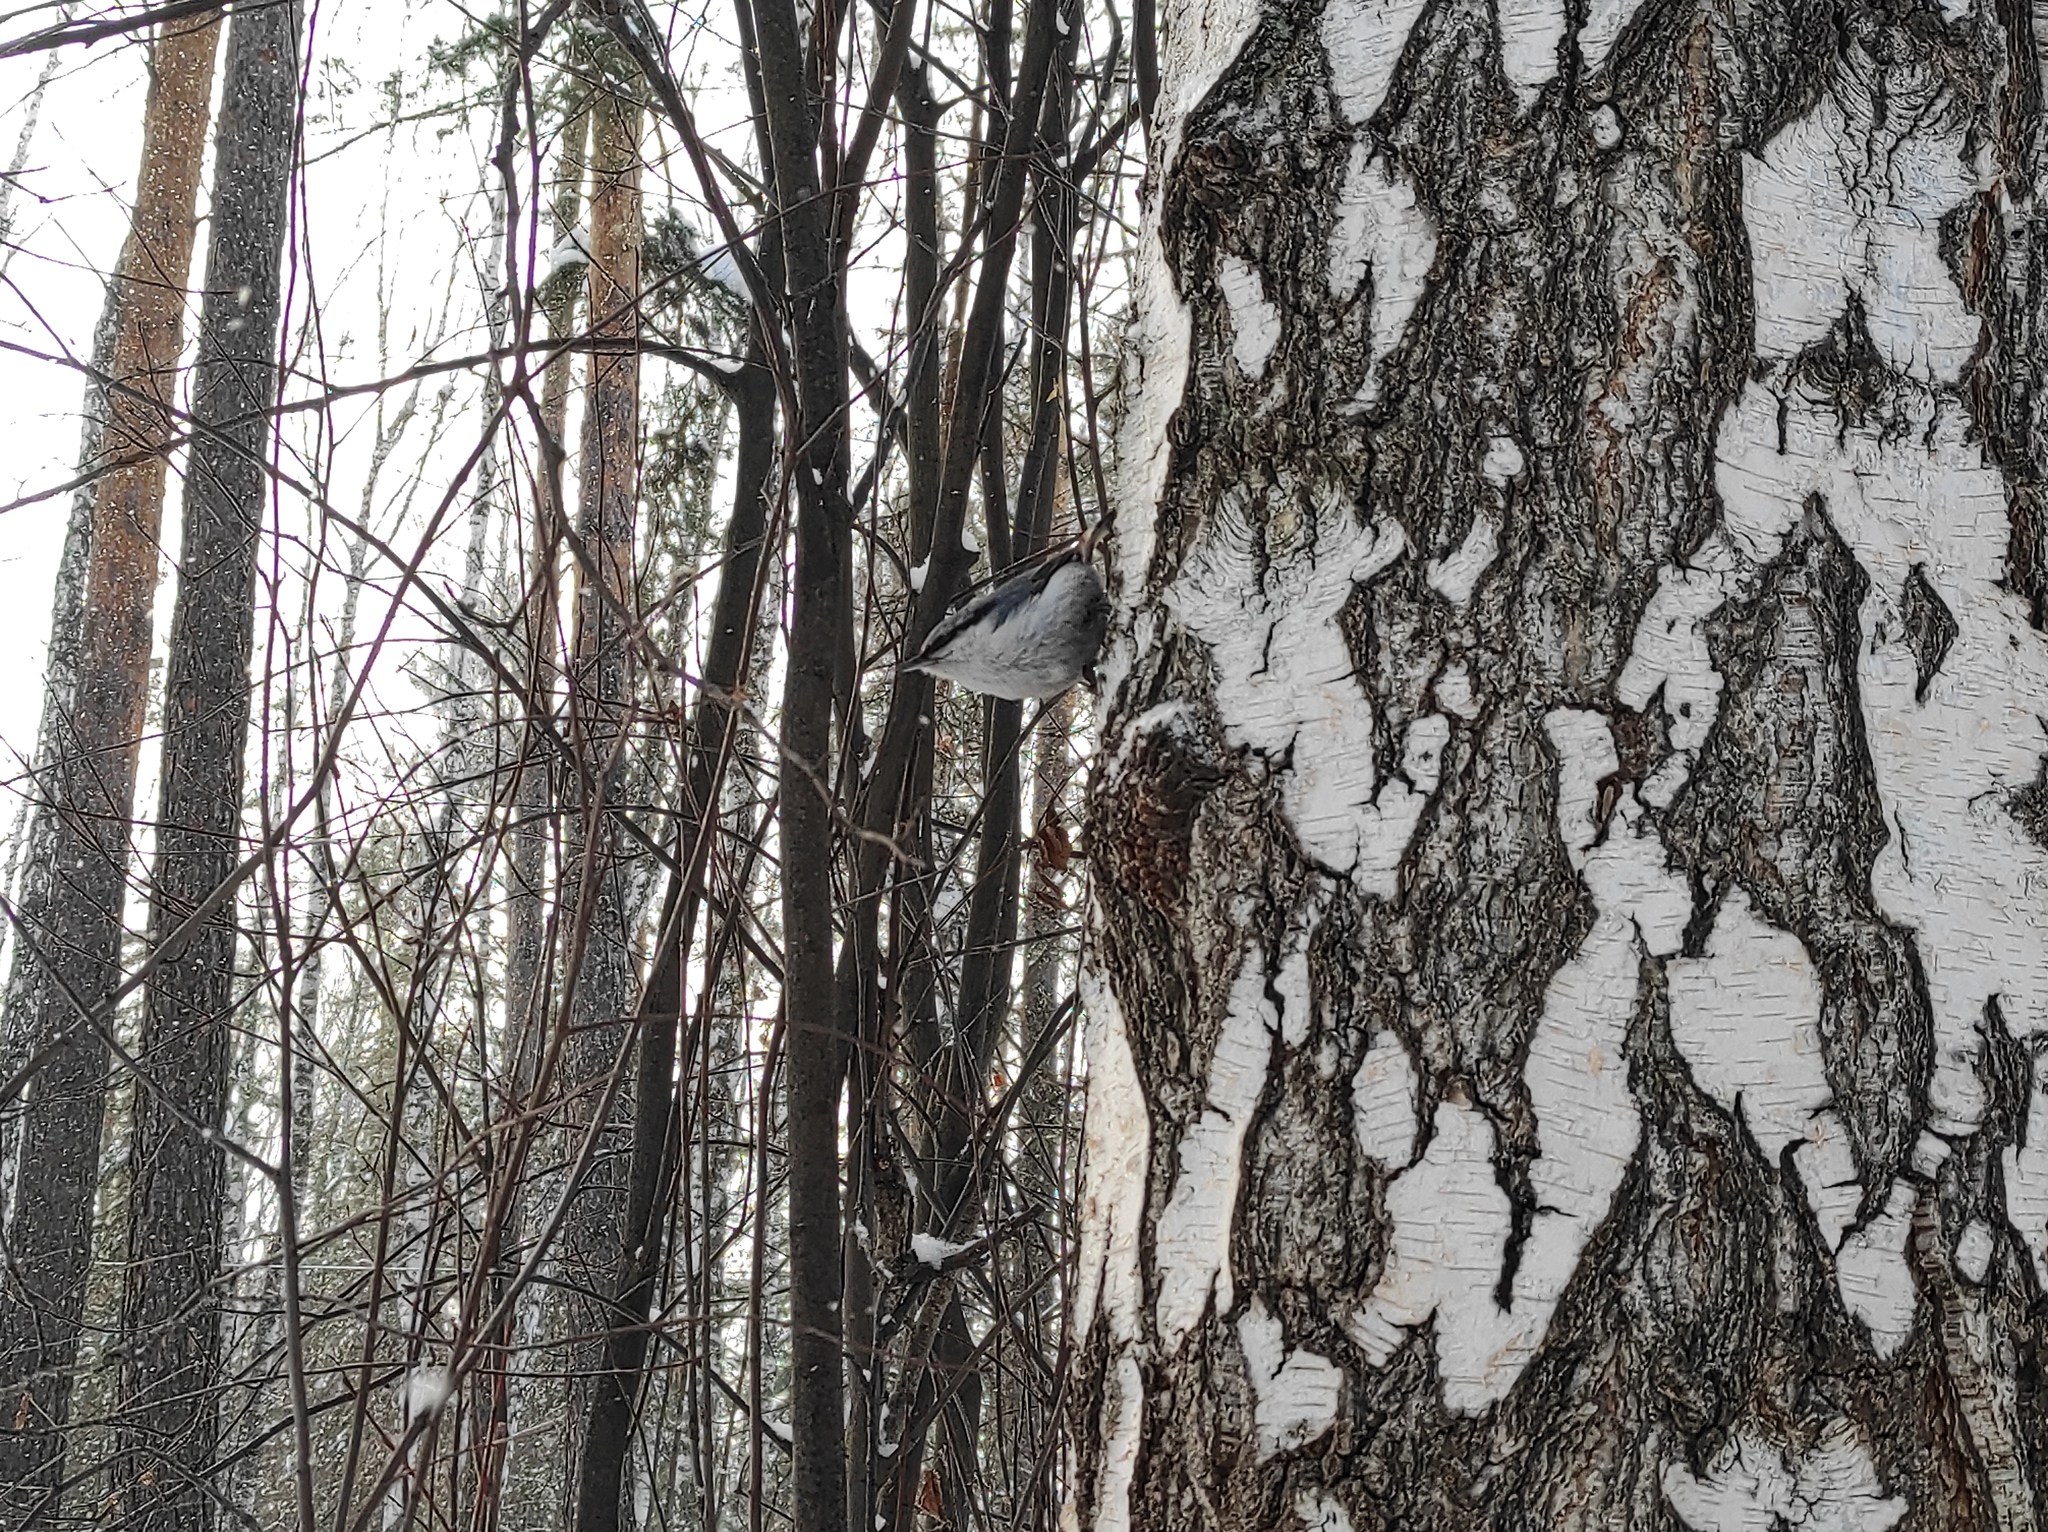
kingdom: Animalia
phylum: Chordata
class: Aves
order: Passeriformes
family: Sittidae
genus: Sitta
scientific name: Sitta europaea
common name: Eurasian nuthatch
